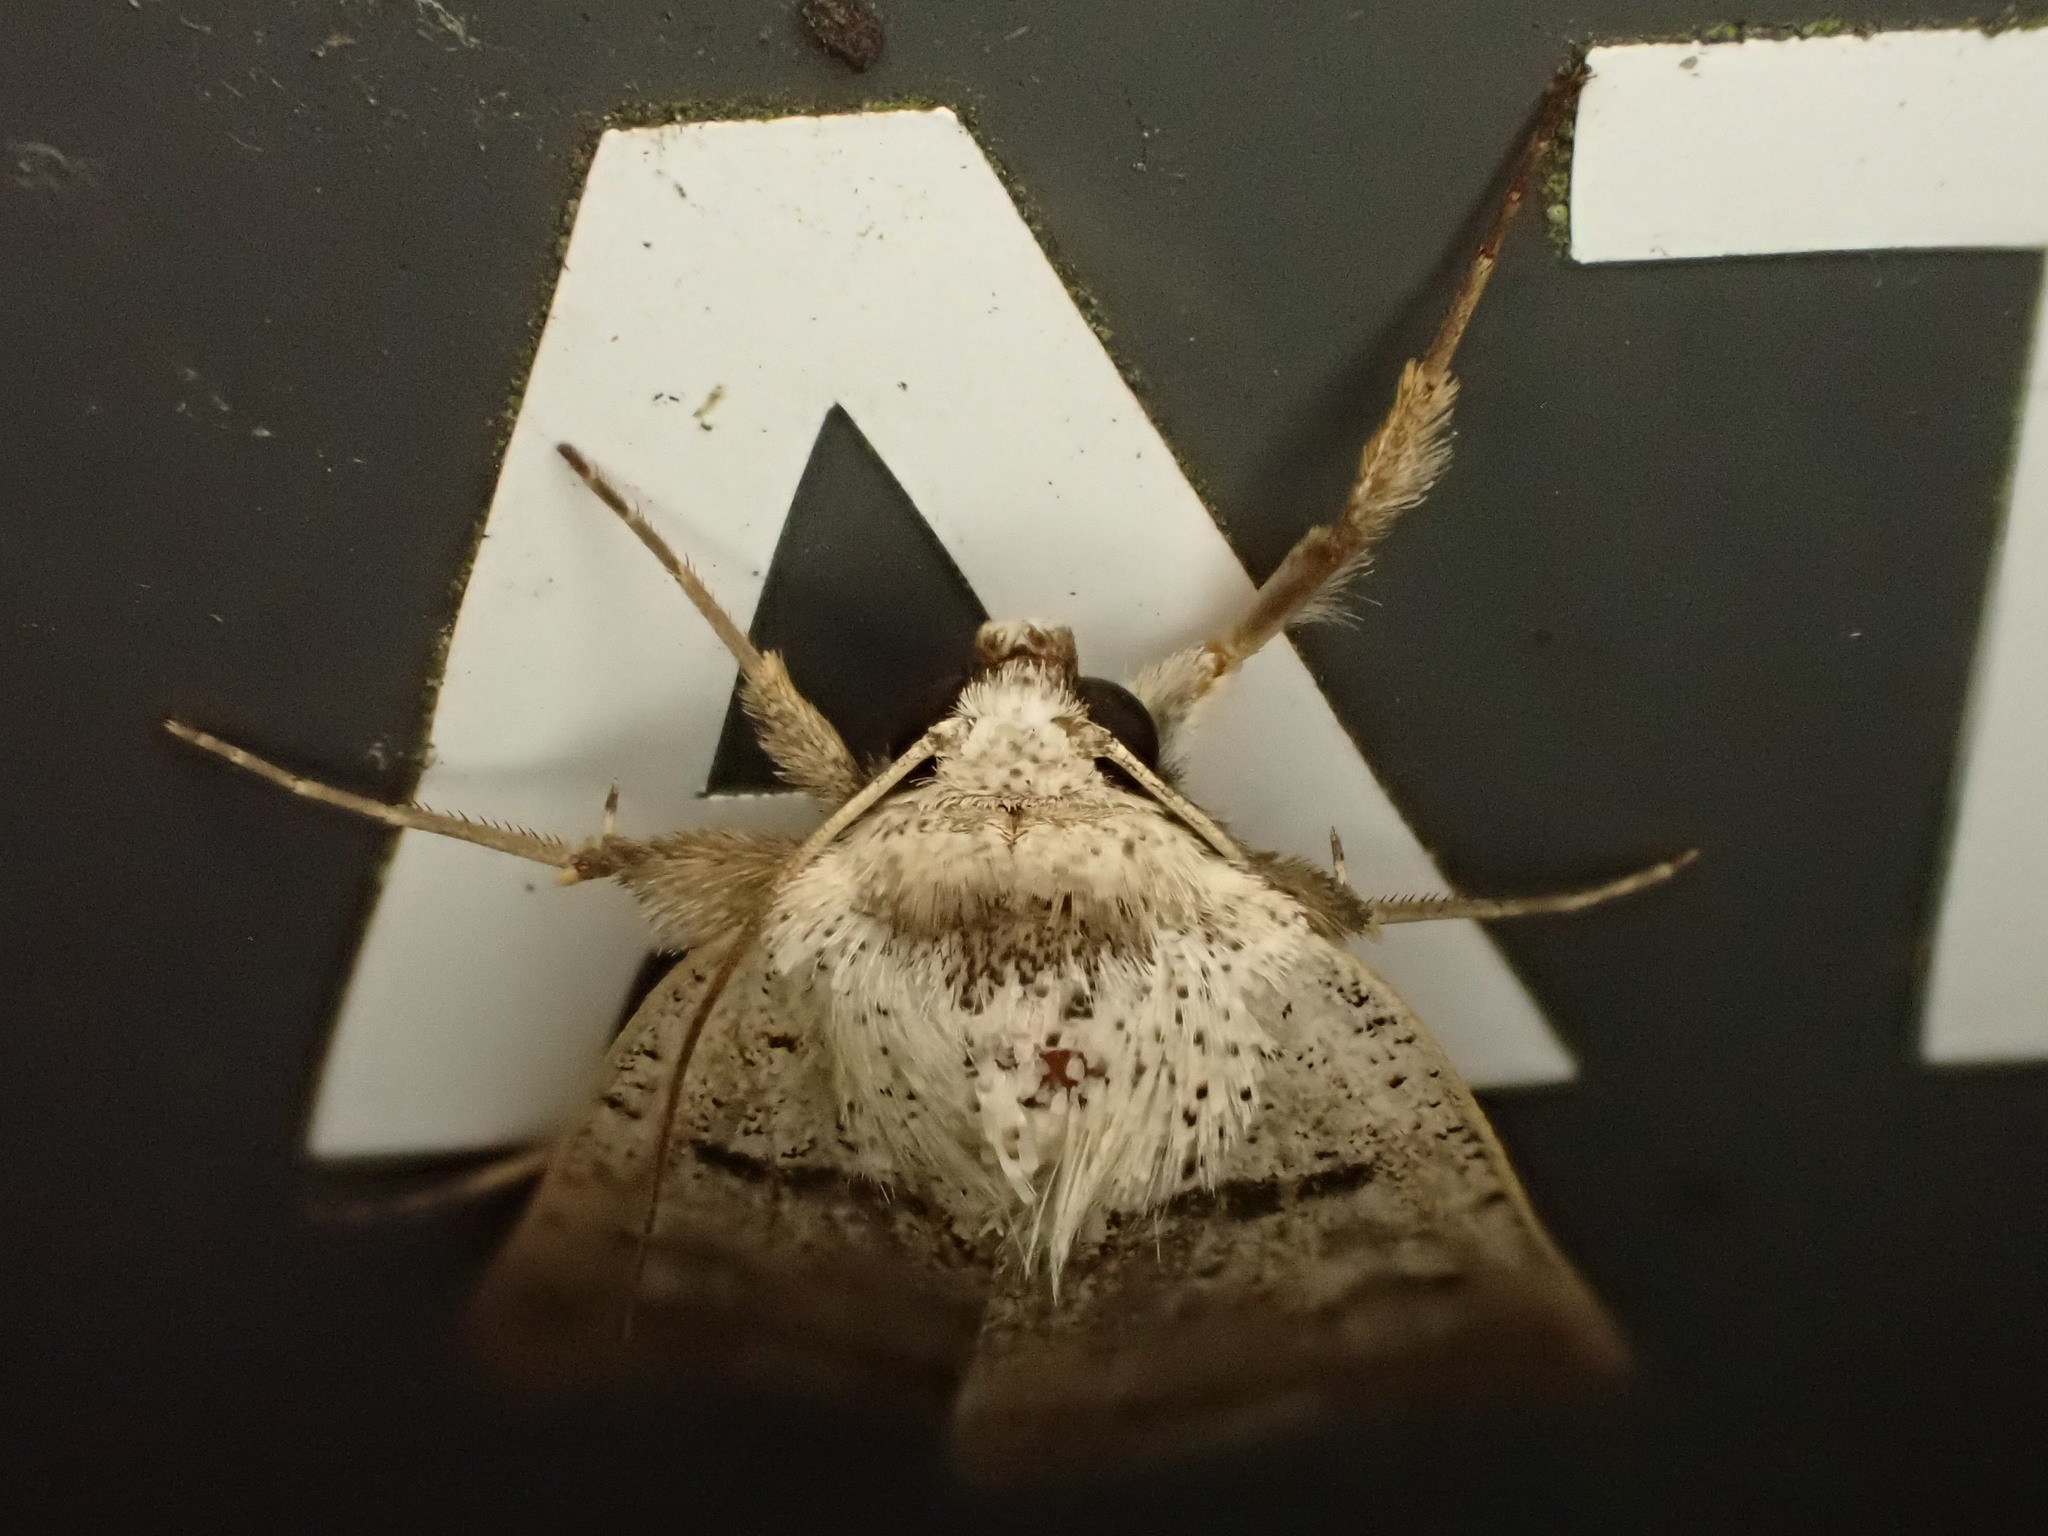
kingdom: Animalia
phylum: Arthropoda
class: Insecta
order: Lepidoptera
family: Erebidae
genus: Pantydia
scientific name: Pantydia sparsa
